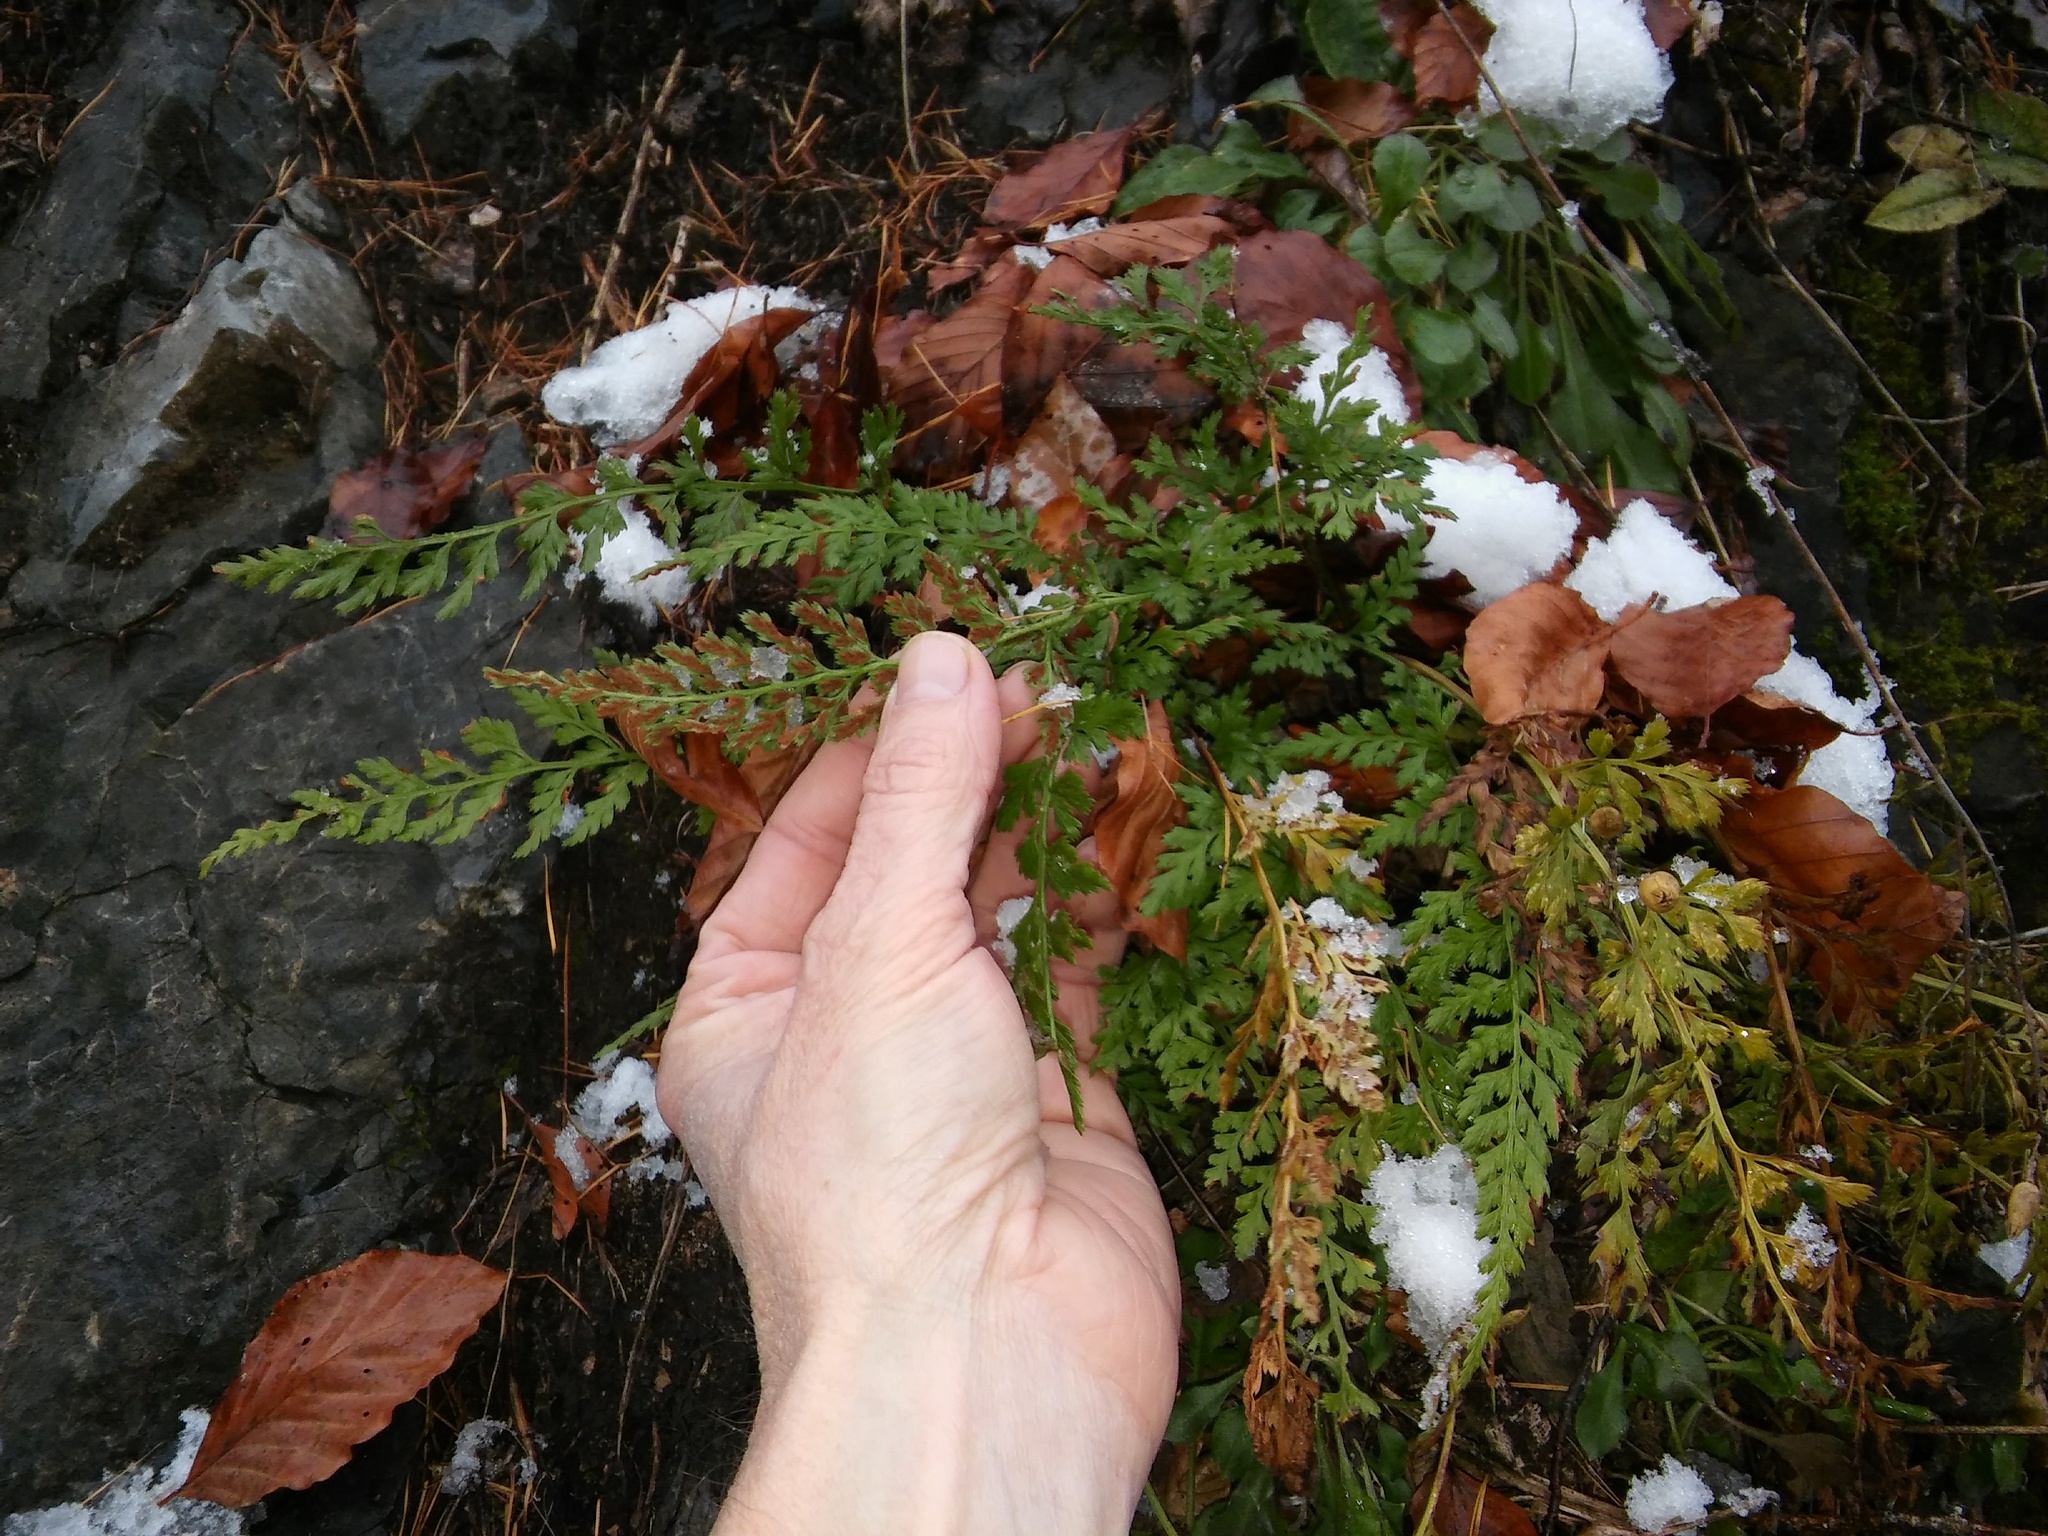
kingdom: Plantae
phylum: Tracheophyta
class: Polypodiopsida
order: Polypodiales
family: Aspleniaceae
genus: Asplenium
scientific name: Asplenium adiantum-nigrum
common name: Black spleenwort
